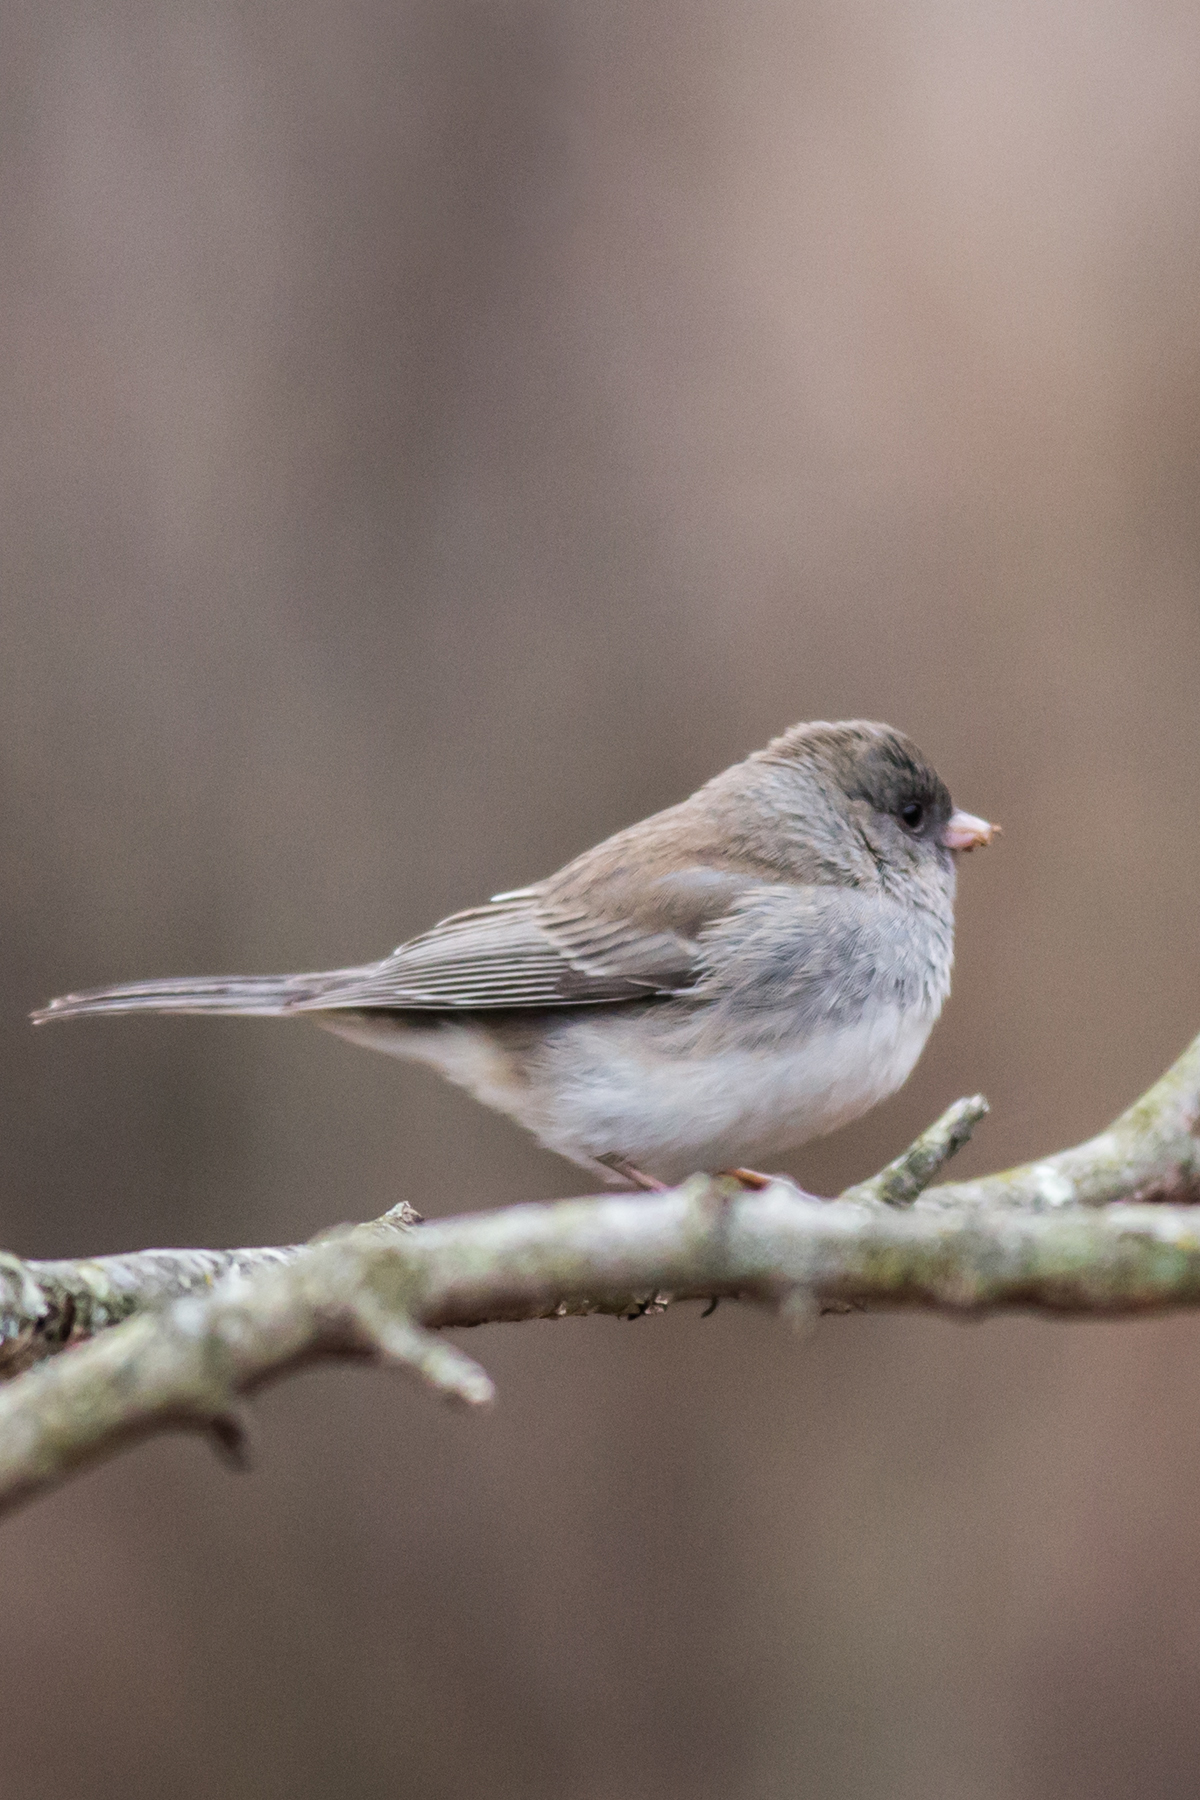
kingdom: Animalia
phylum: Chordata
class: Aves
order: Passeriformes
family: Passerellidae
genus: Junco
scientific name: Junco hyemalis
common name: Dark-eyed junco
